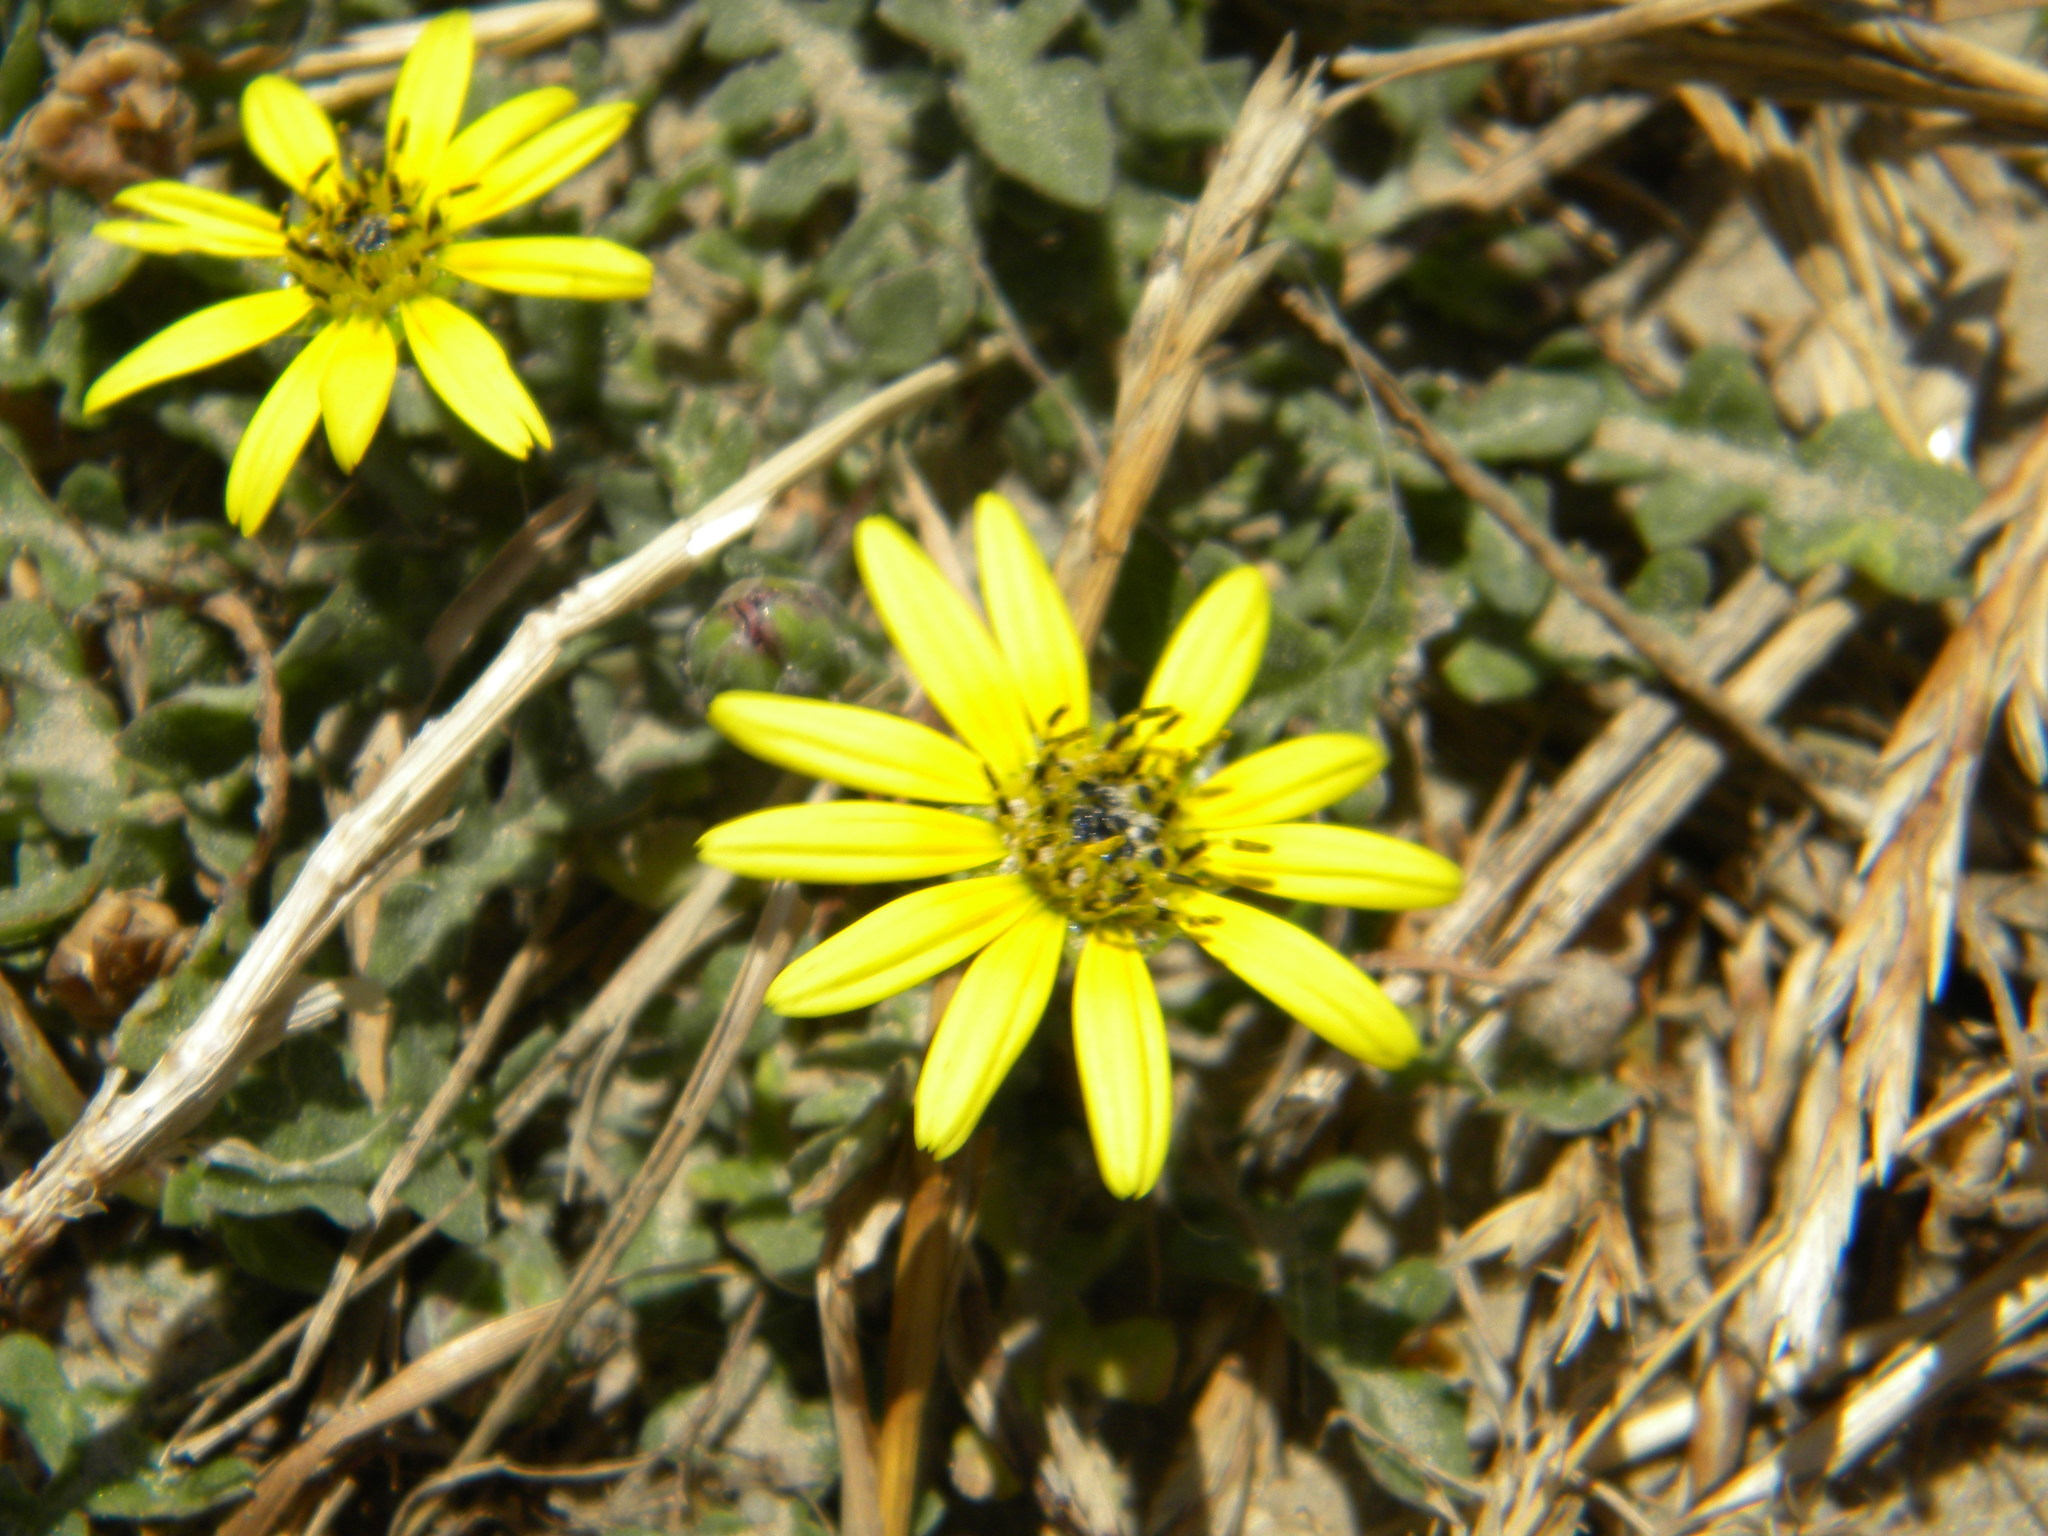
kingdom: Plantae
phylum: Tracheophyta
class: Magnoliopsida
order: Asterales
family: Asteraceae
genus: Arctotheca
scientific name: Arctotheca calendula
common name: Capeweed
